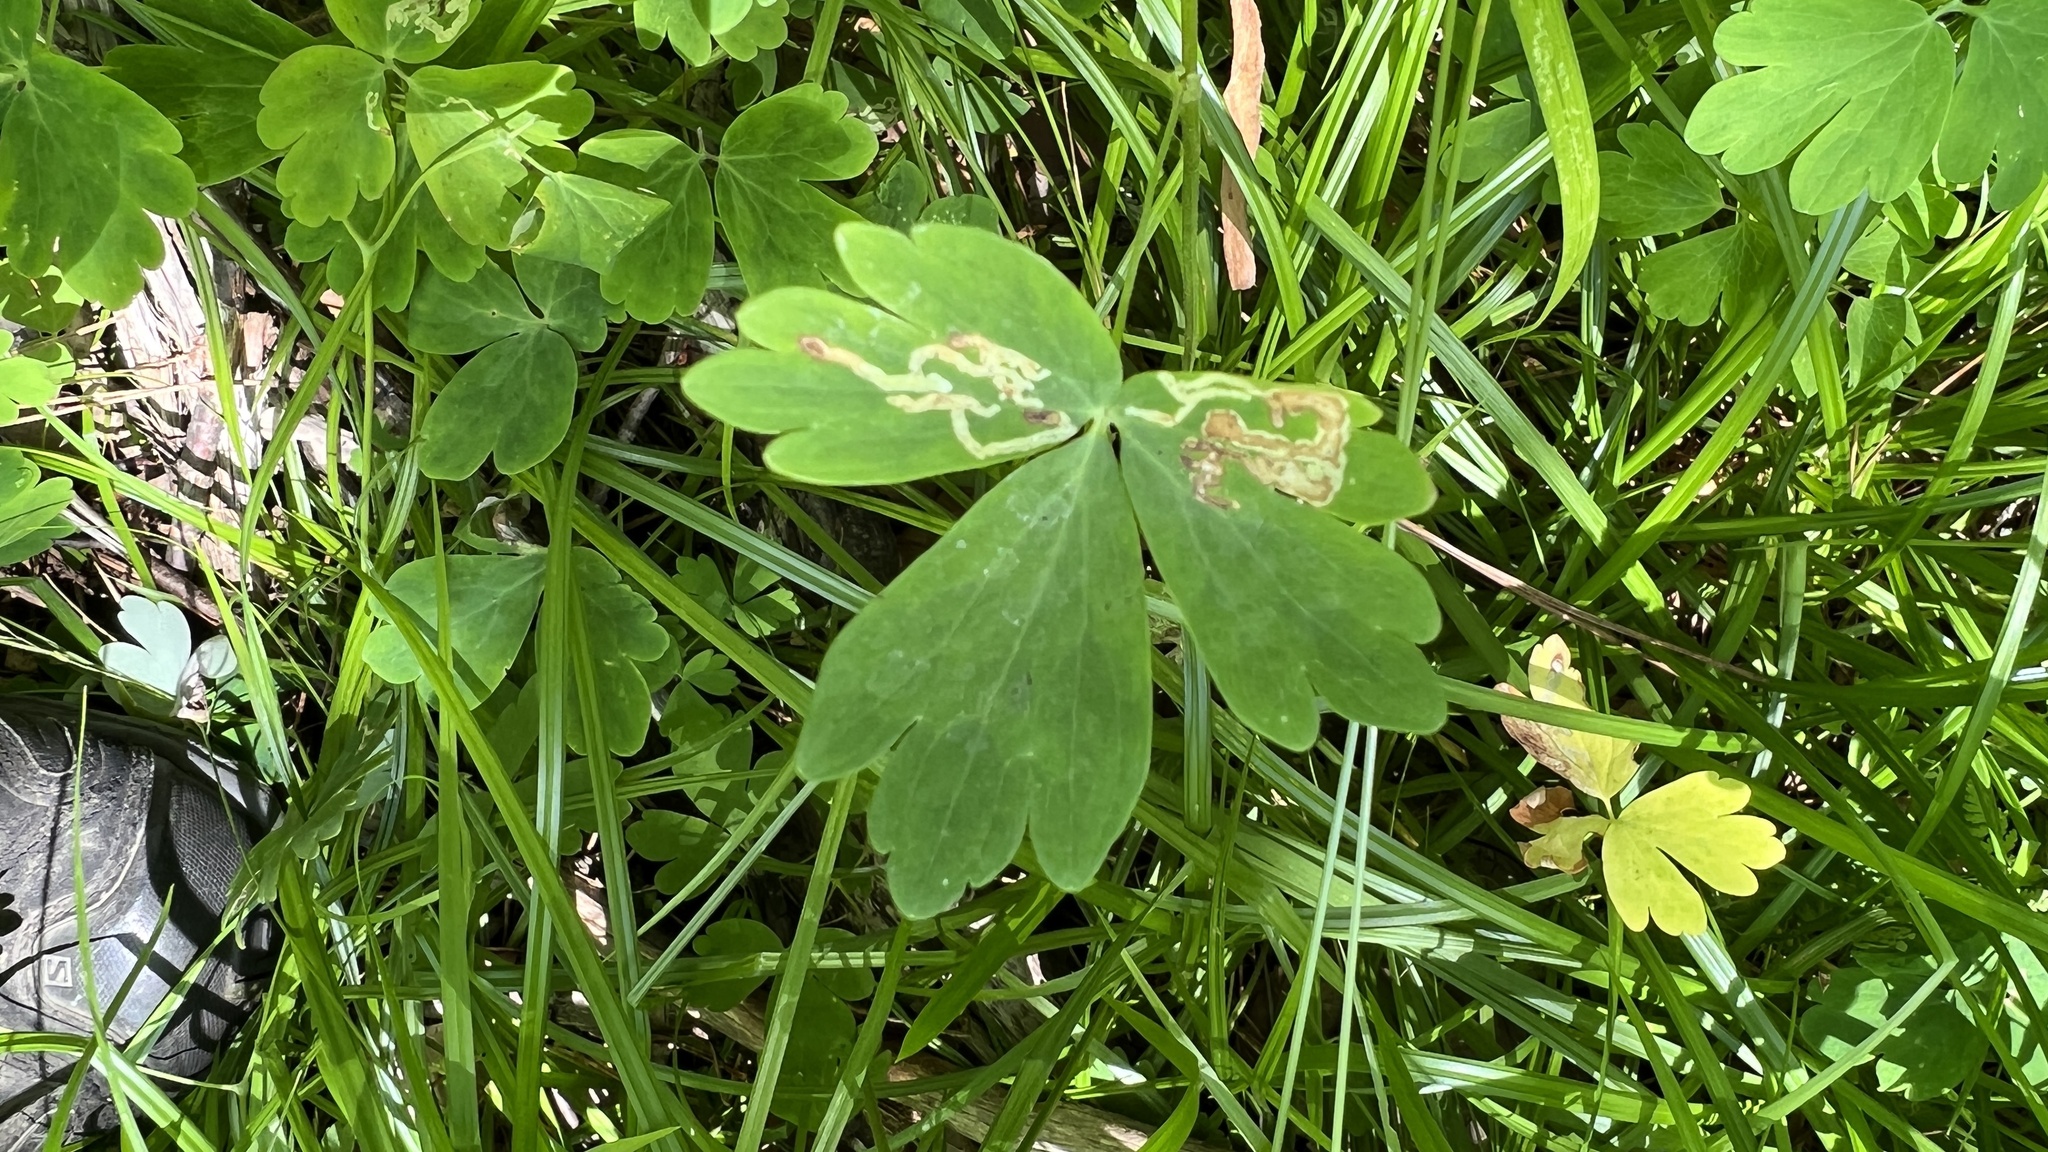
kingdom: Animalia
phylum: Arthropoda
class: Insecta
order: Diptera
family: Agromyzidae
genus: Phytomyza
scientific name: Phytomyza aquilegivora
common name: Columbine leafminer
